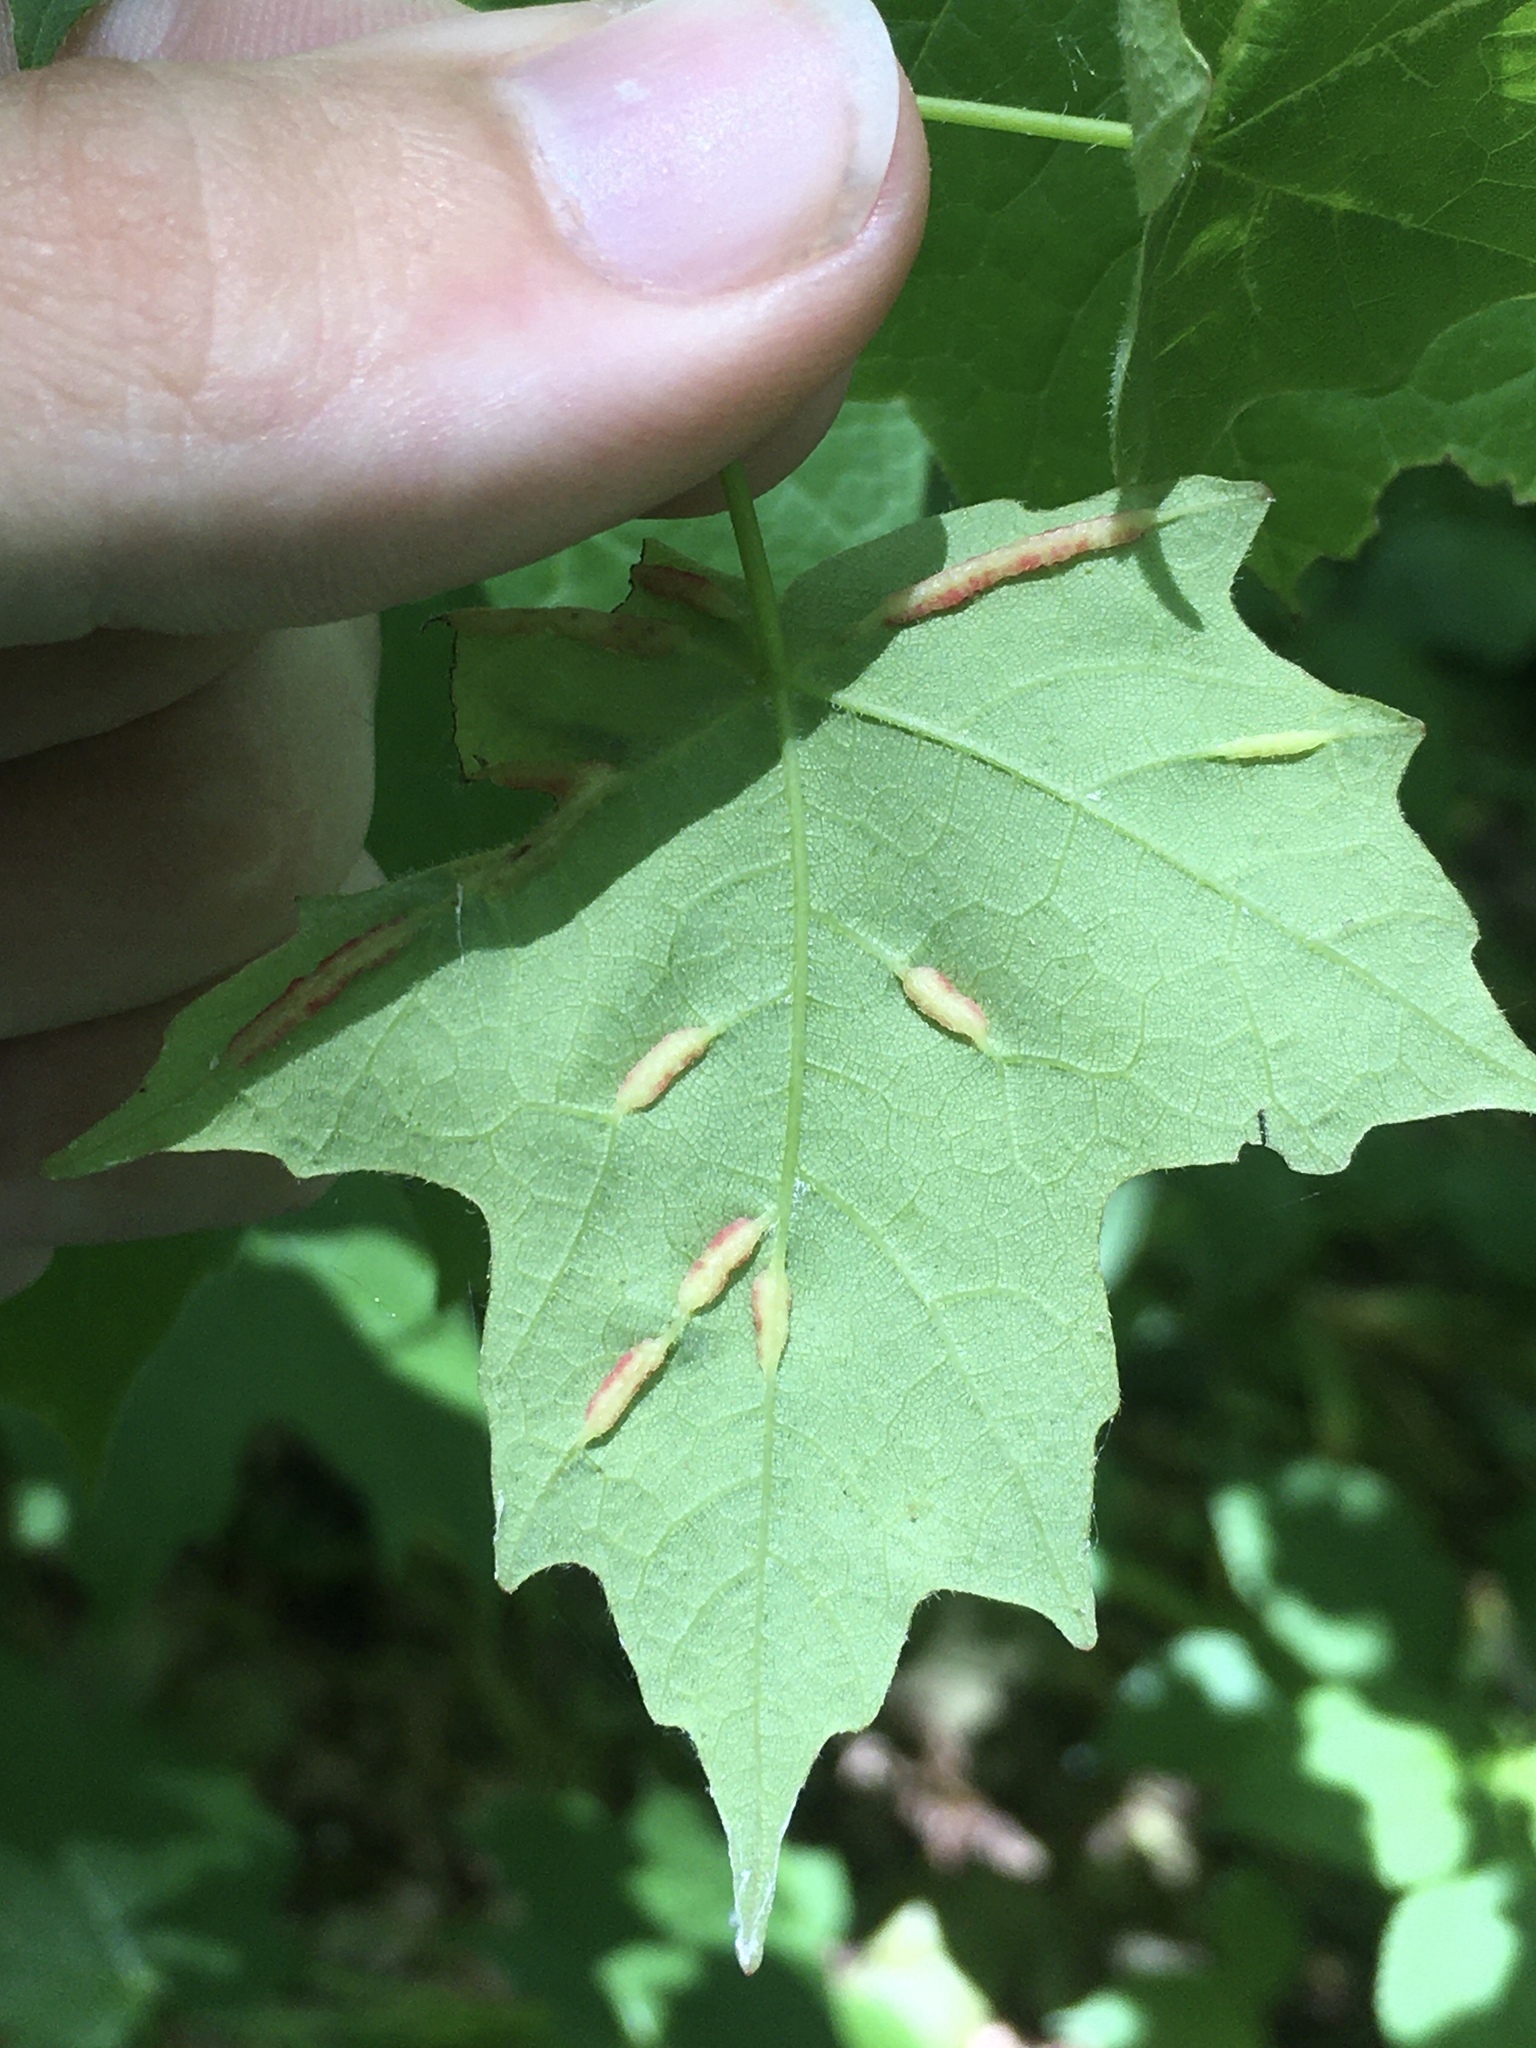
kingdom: Animalia
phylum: Arthropoda
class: Insecta
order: Diptera
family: Cecidomyiidae
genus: Dasineura
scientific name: Dasineura communis
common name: Gouty vein midge
